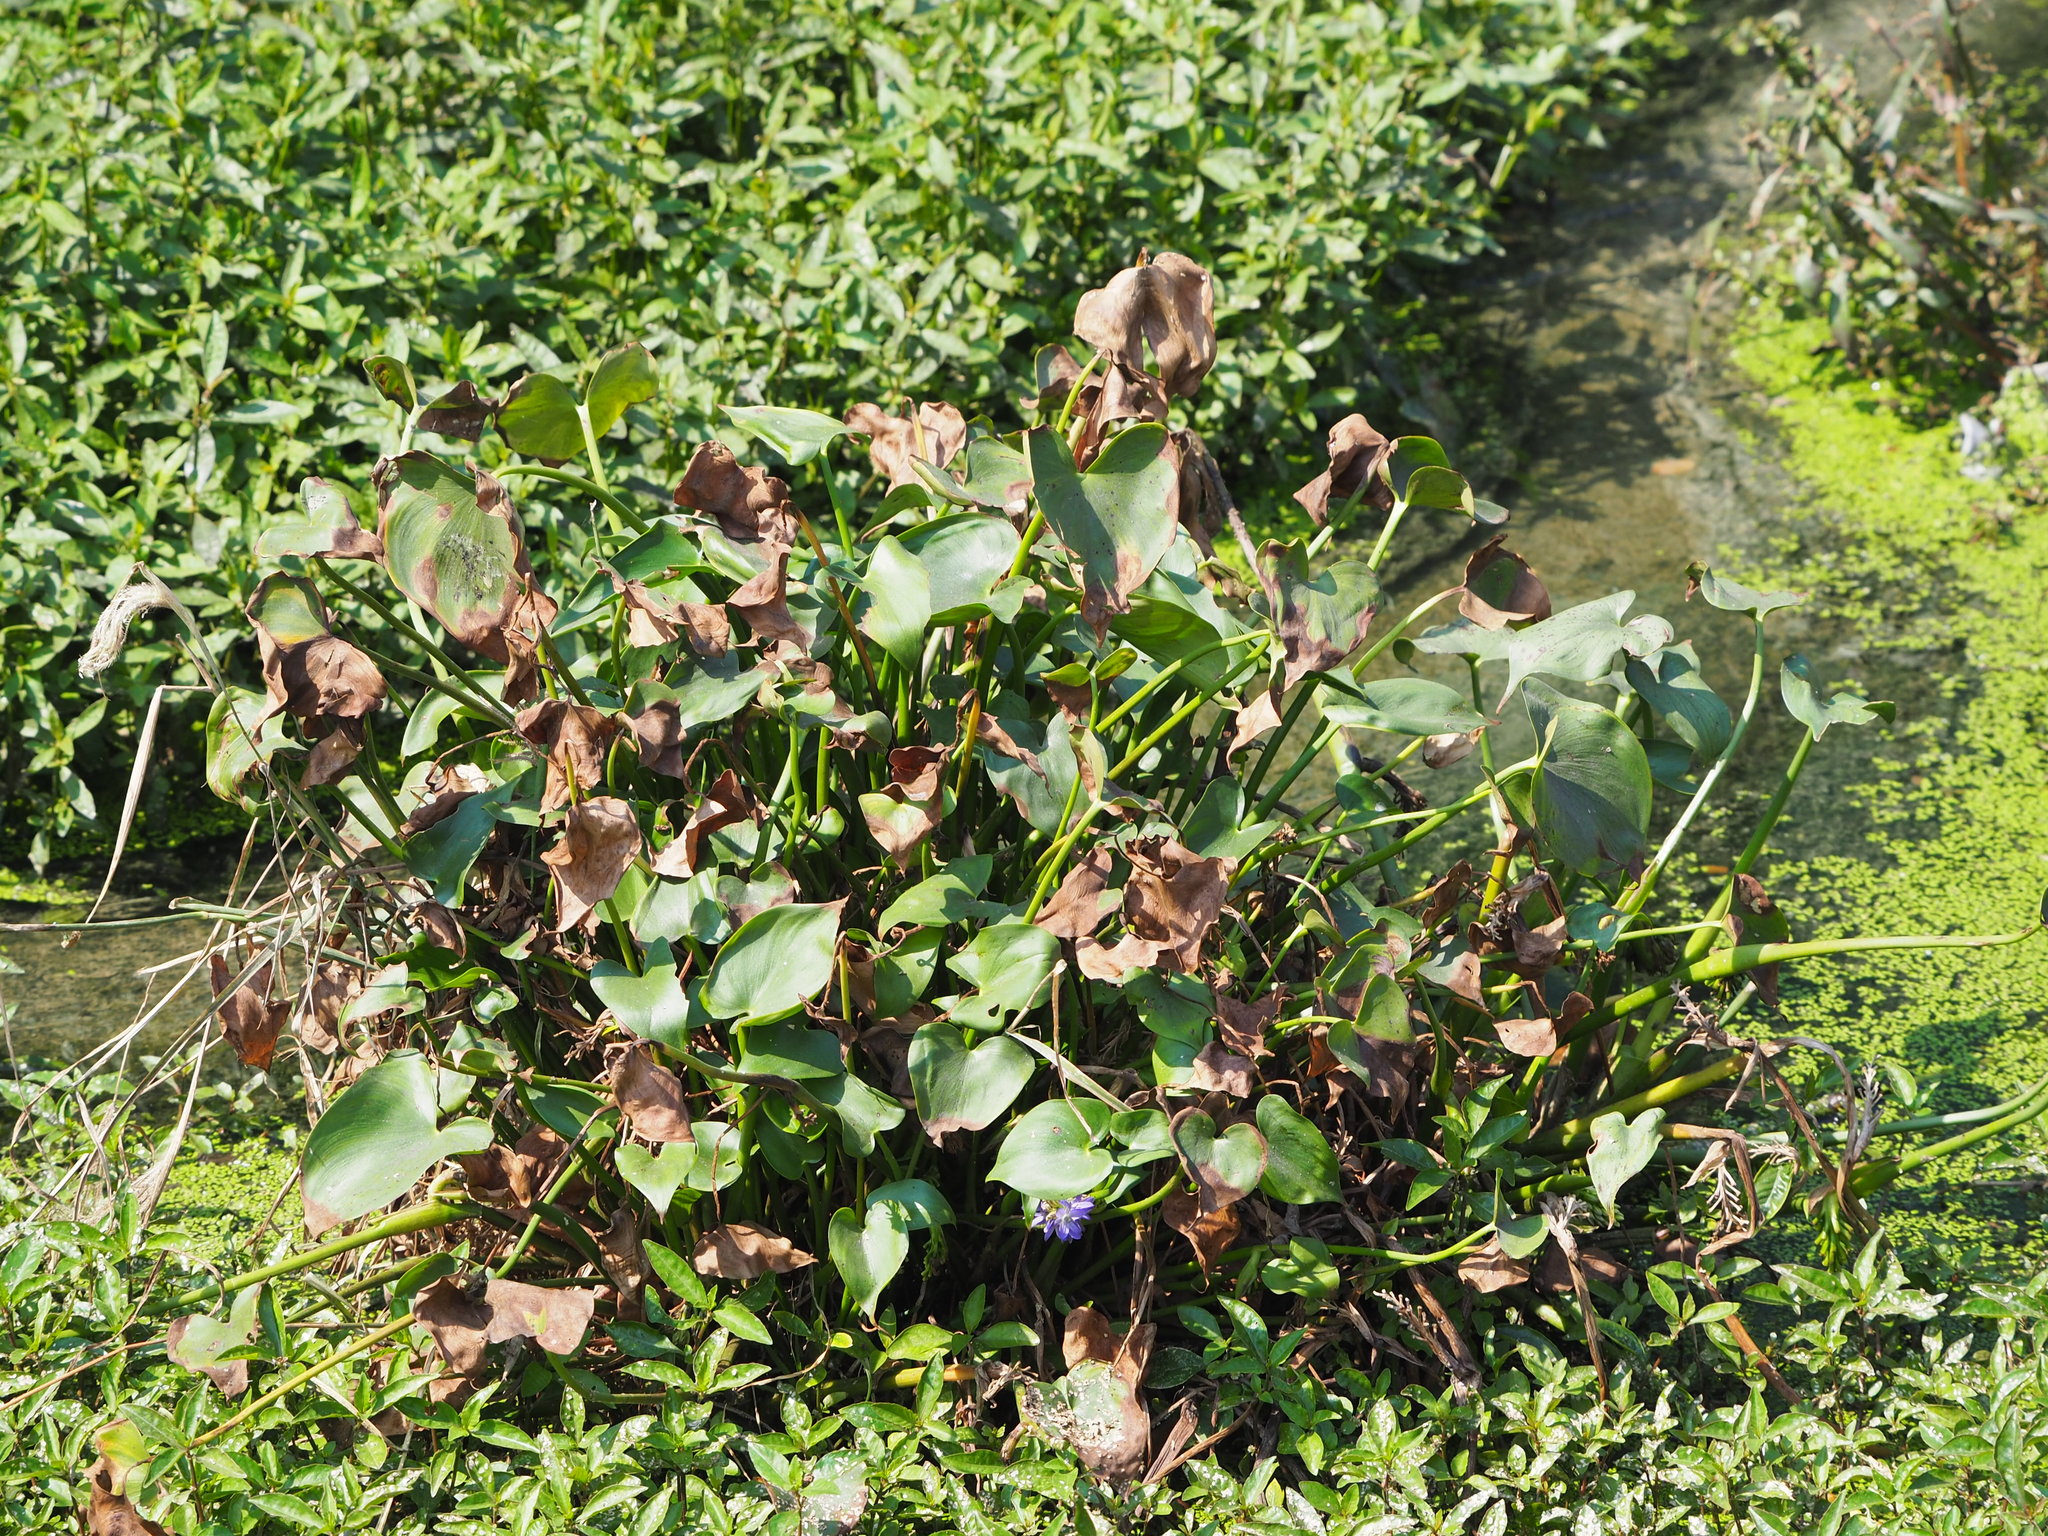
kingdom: Plantae
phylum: Tracheophyta
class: Liliopsida
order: Commelinales
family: Pontederiaceae
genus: Pontederia
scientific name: Pontederia vaginalis
